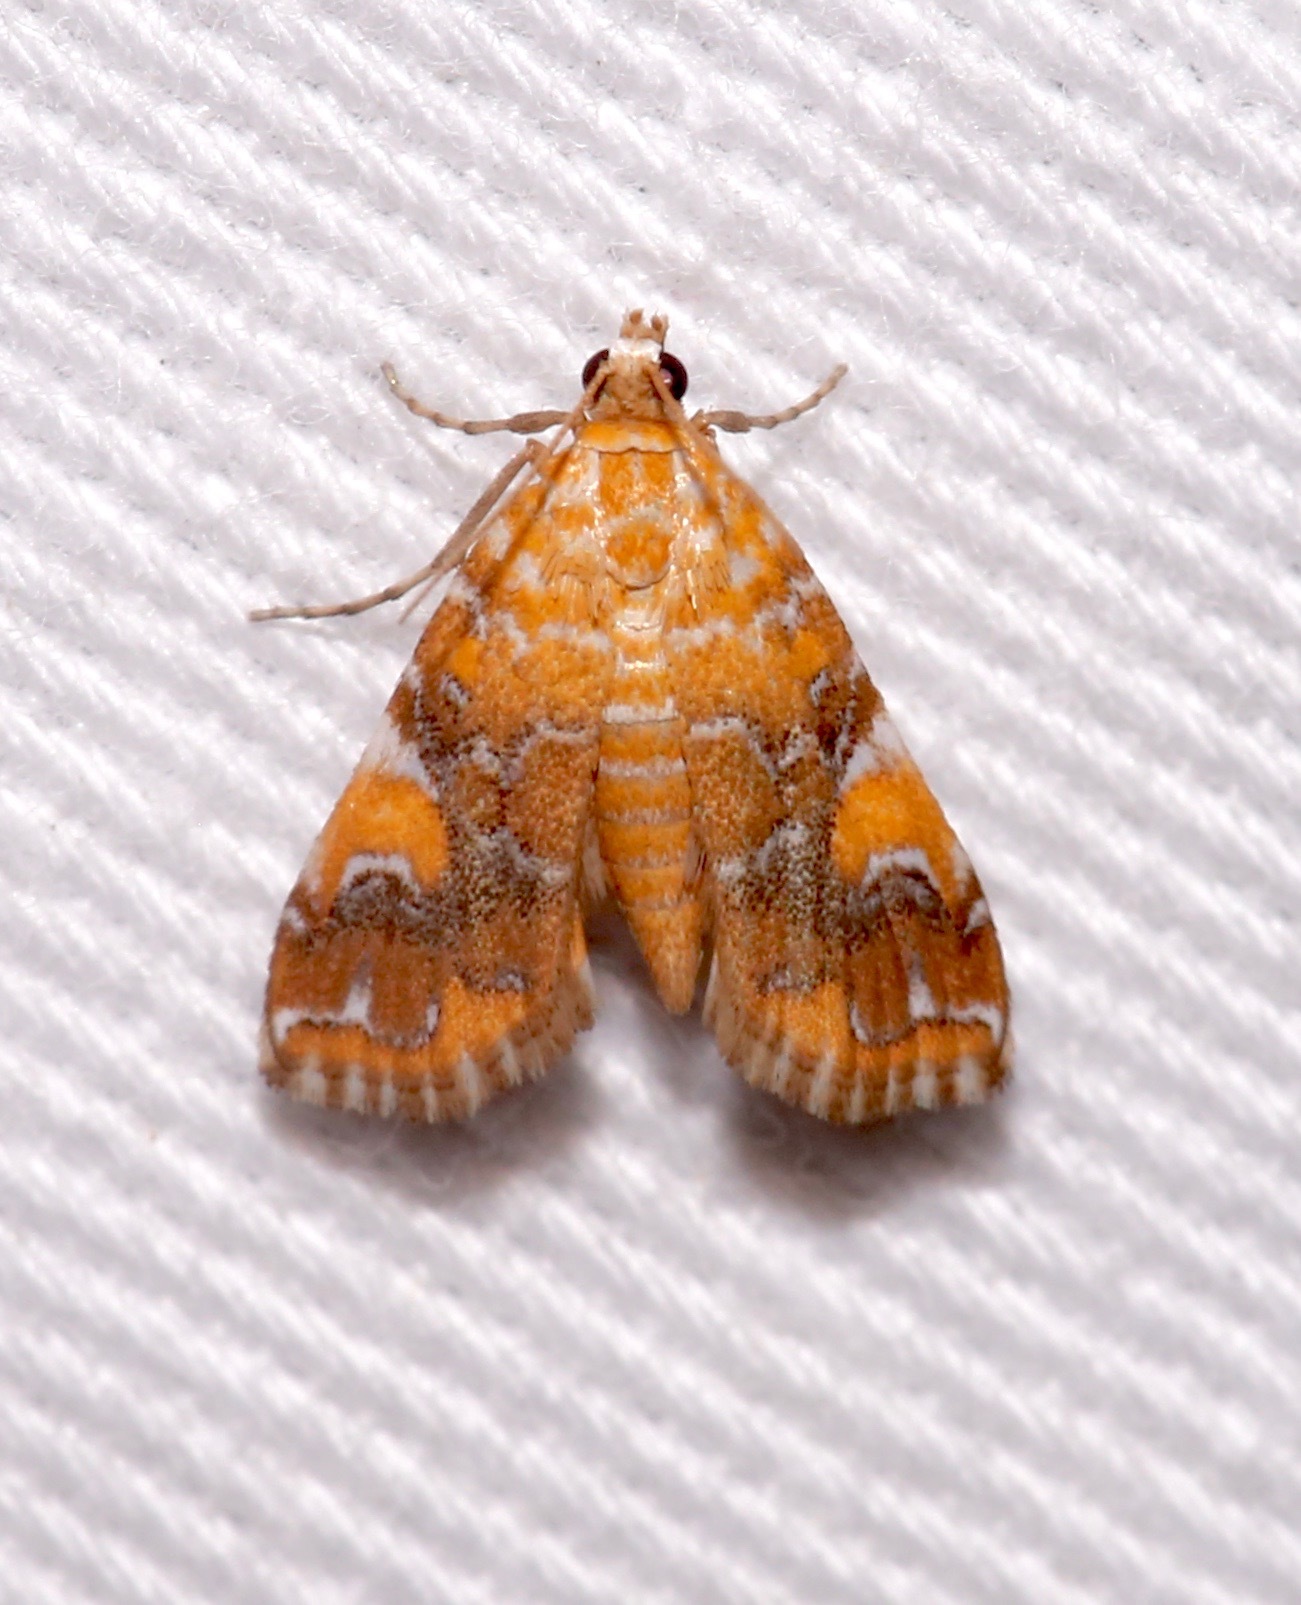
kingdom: Animalia
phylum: Arthropoda
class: Insecta
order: Lepidoptera
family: Crambidae
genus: Elophila
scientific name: Elophila nebulosalis
